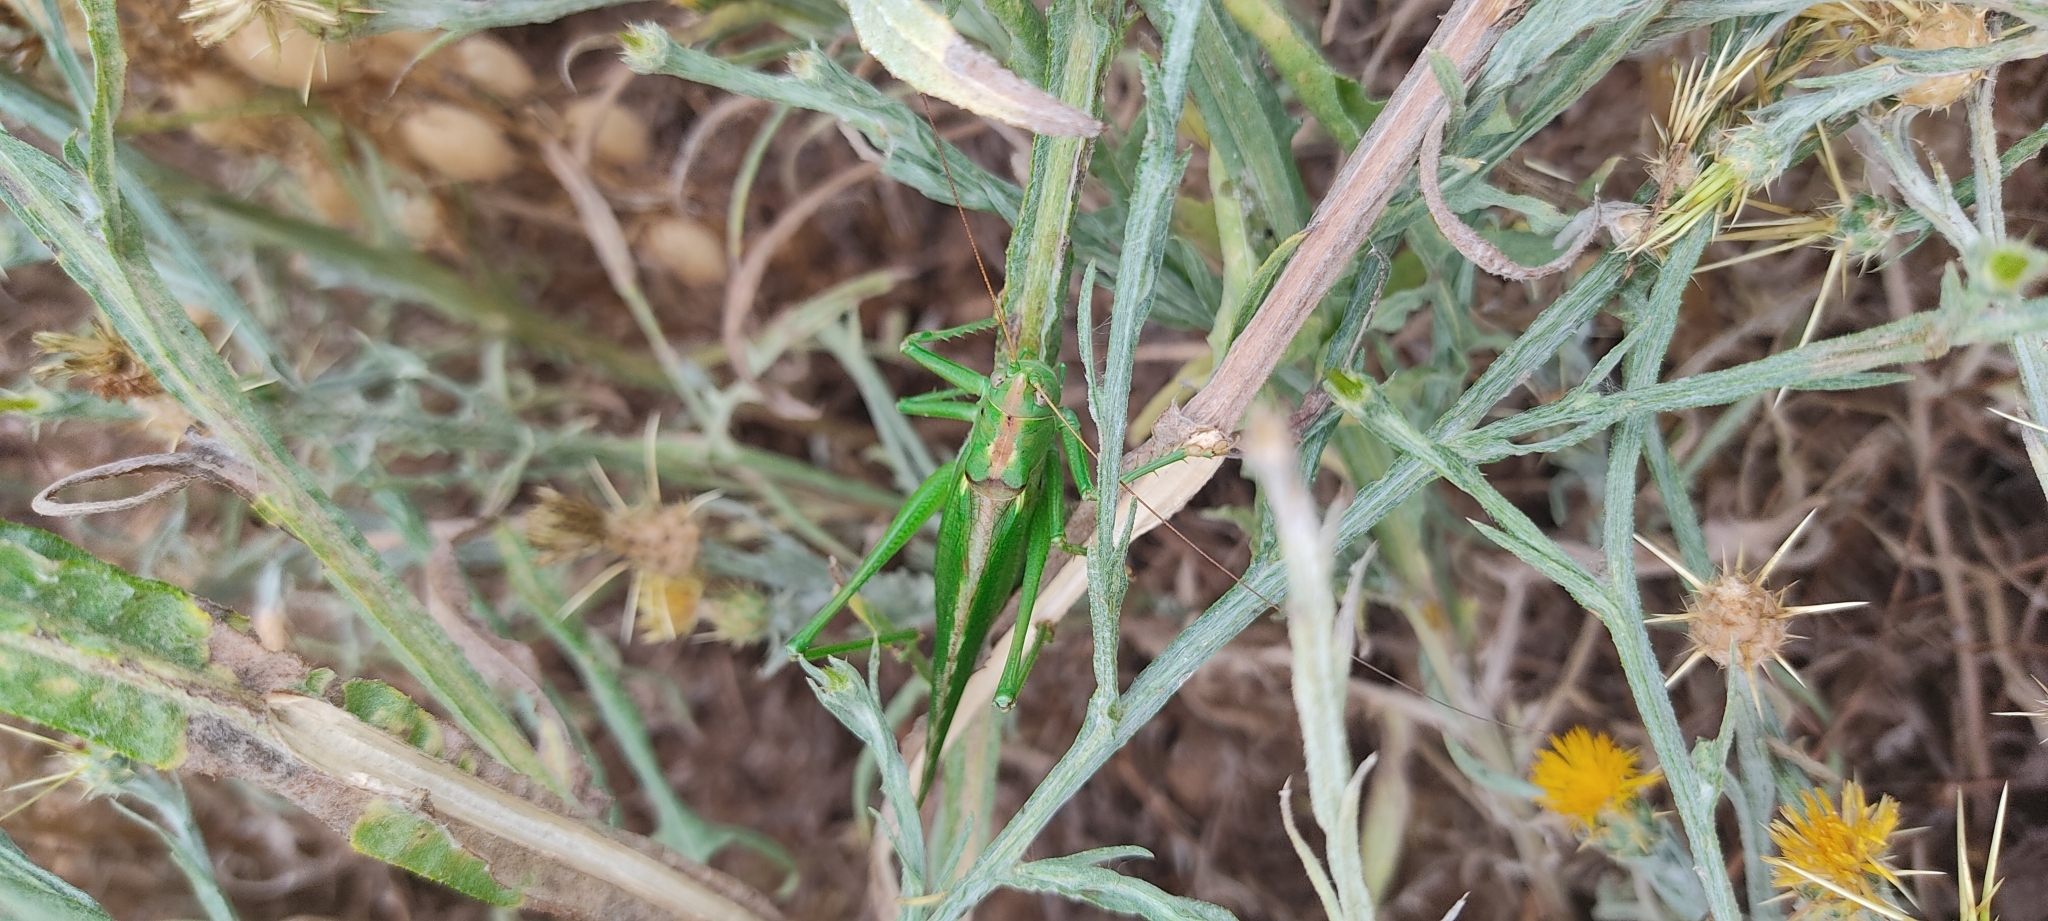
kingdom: Animalia
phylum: Arthropoda
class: Insecta
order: Orthoptera
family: Tettigoniidae
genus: Tettigonia
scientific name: Tettigonia viridissima
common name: Great green bush-cricket
